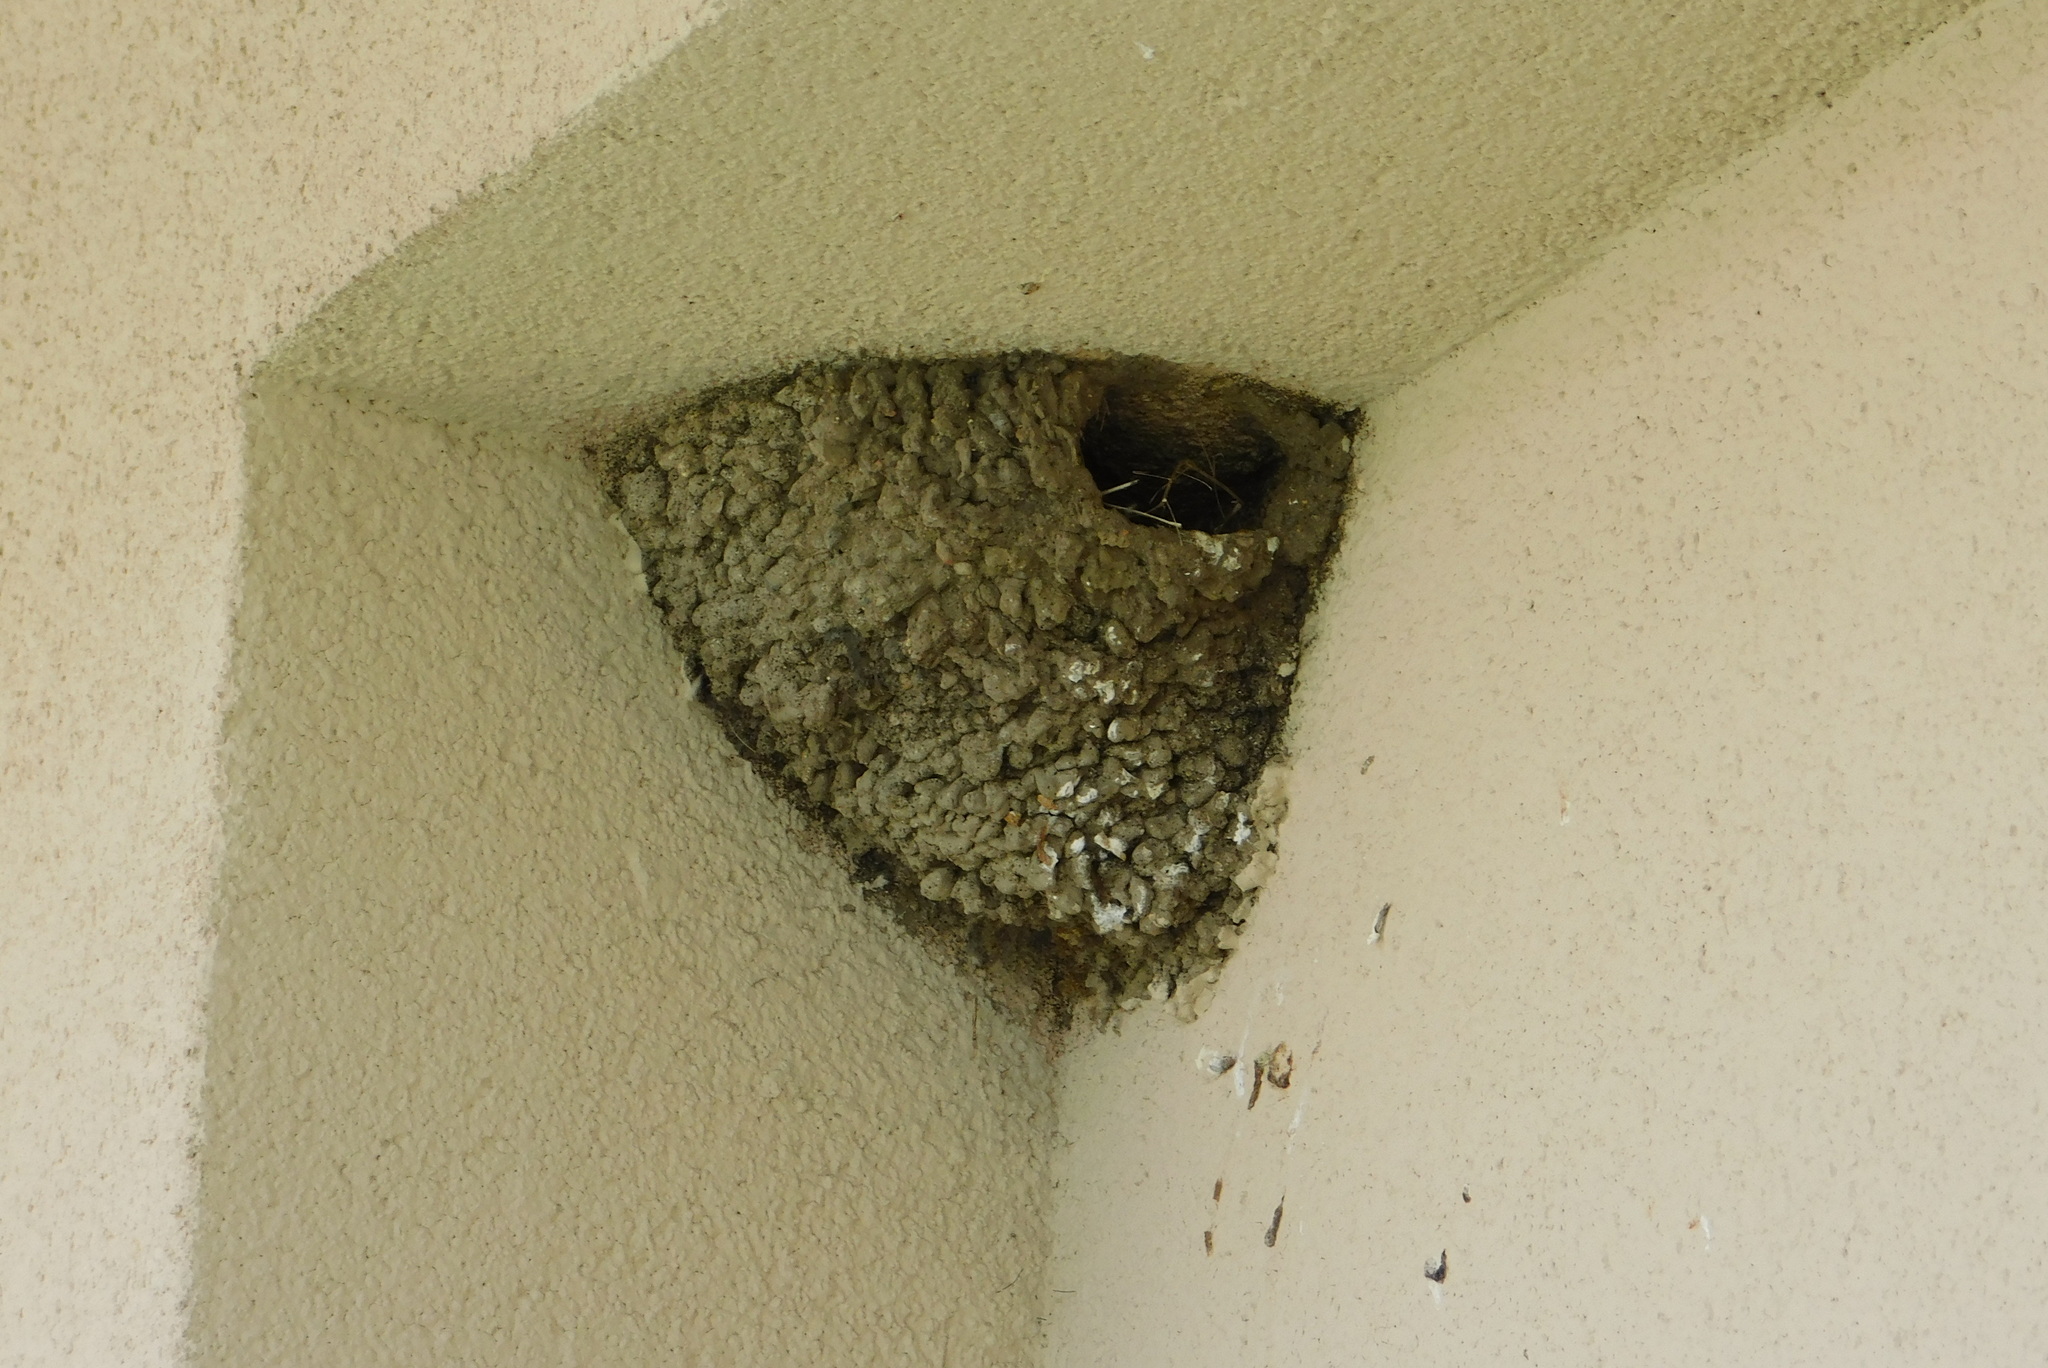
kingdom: Animalia
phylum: Chordata
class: Aves
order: Passeriformes
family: Hirundinidae
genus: Delichon
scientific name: Delichon urbicum
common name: Common house martin
